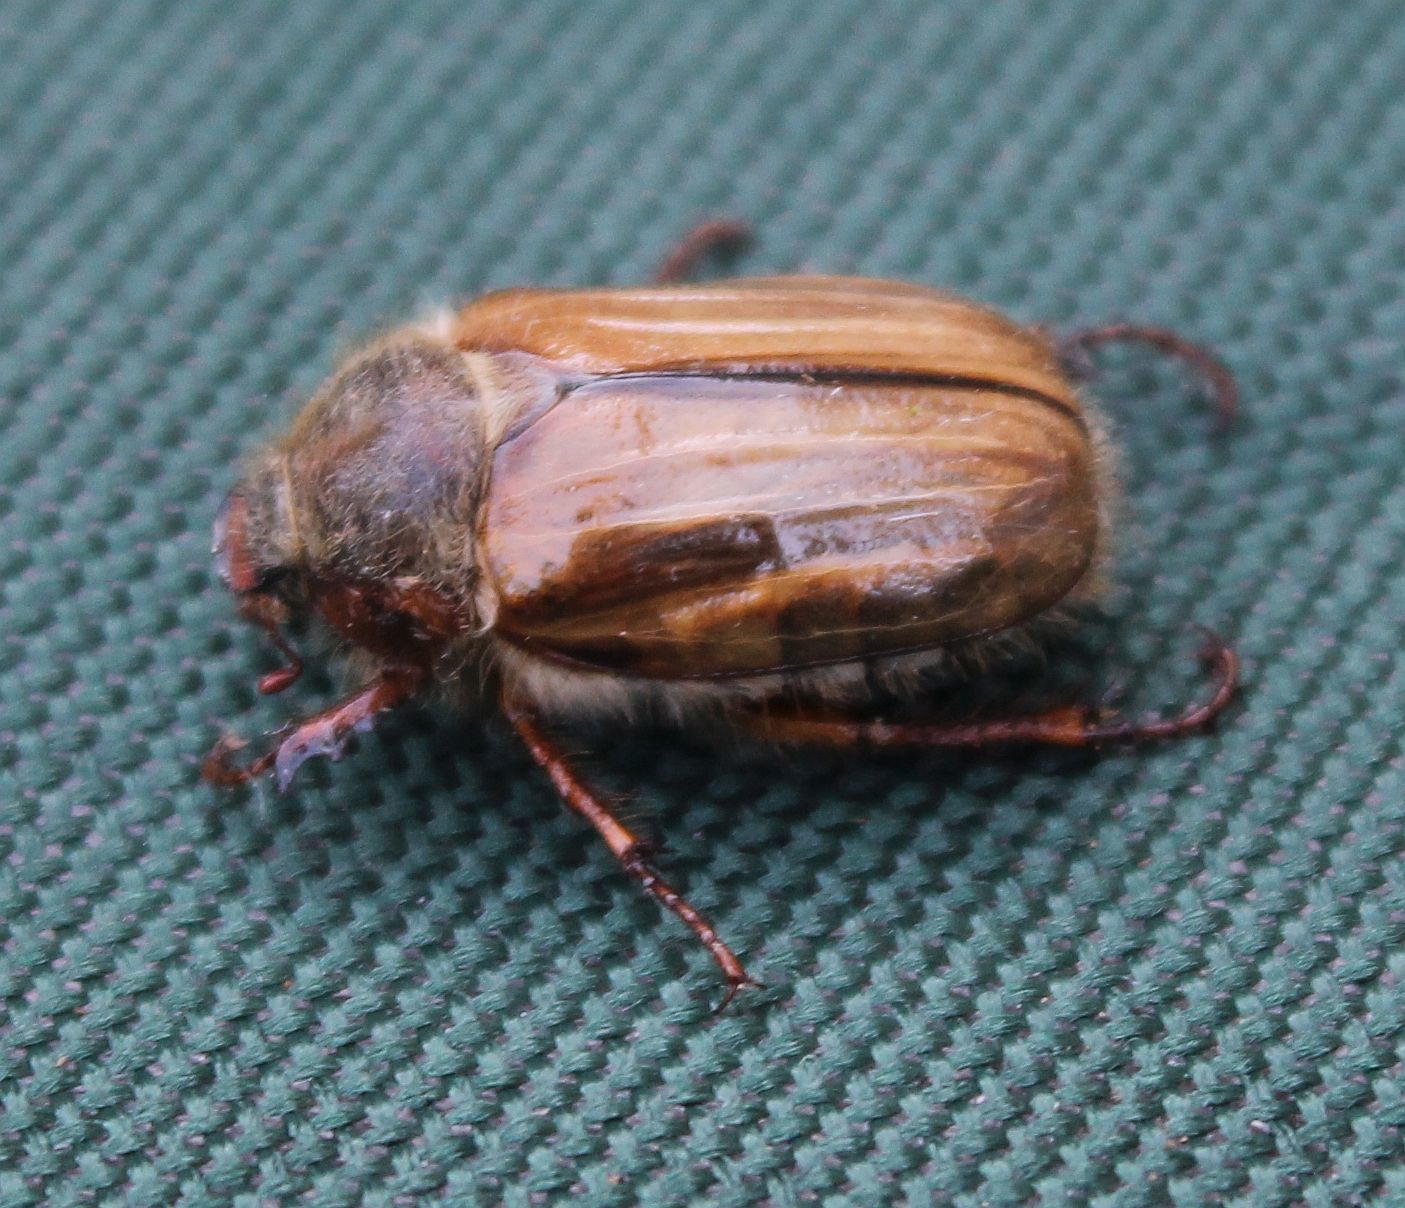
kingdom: Animalia
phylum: Arthropoda
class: Insecta
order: Coleoptera
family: Scarabaeidae
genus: Amphimallon
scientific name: Amphimallon solstitiale
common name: Summer chafer
